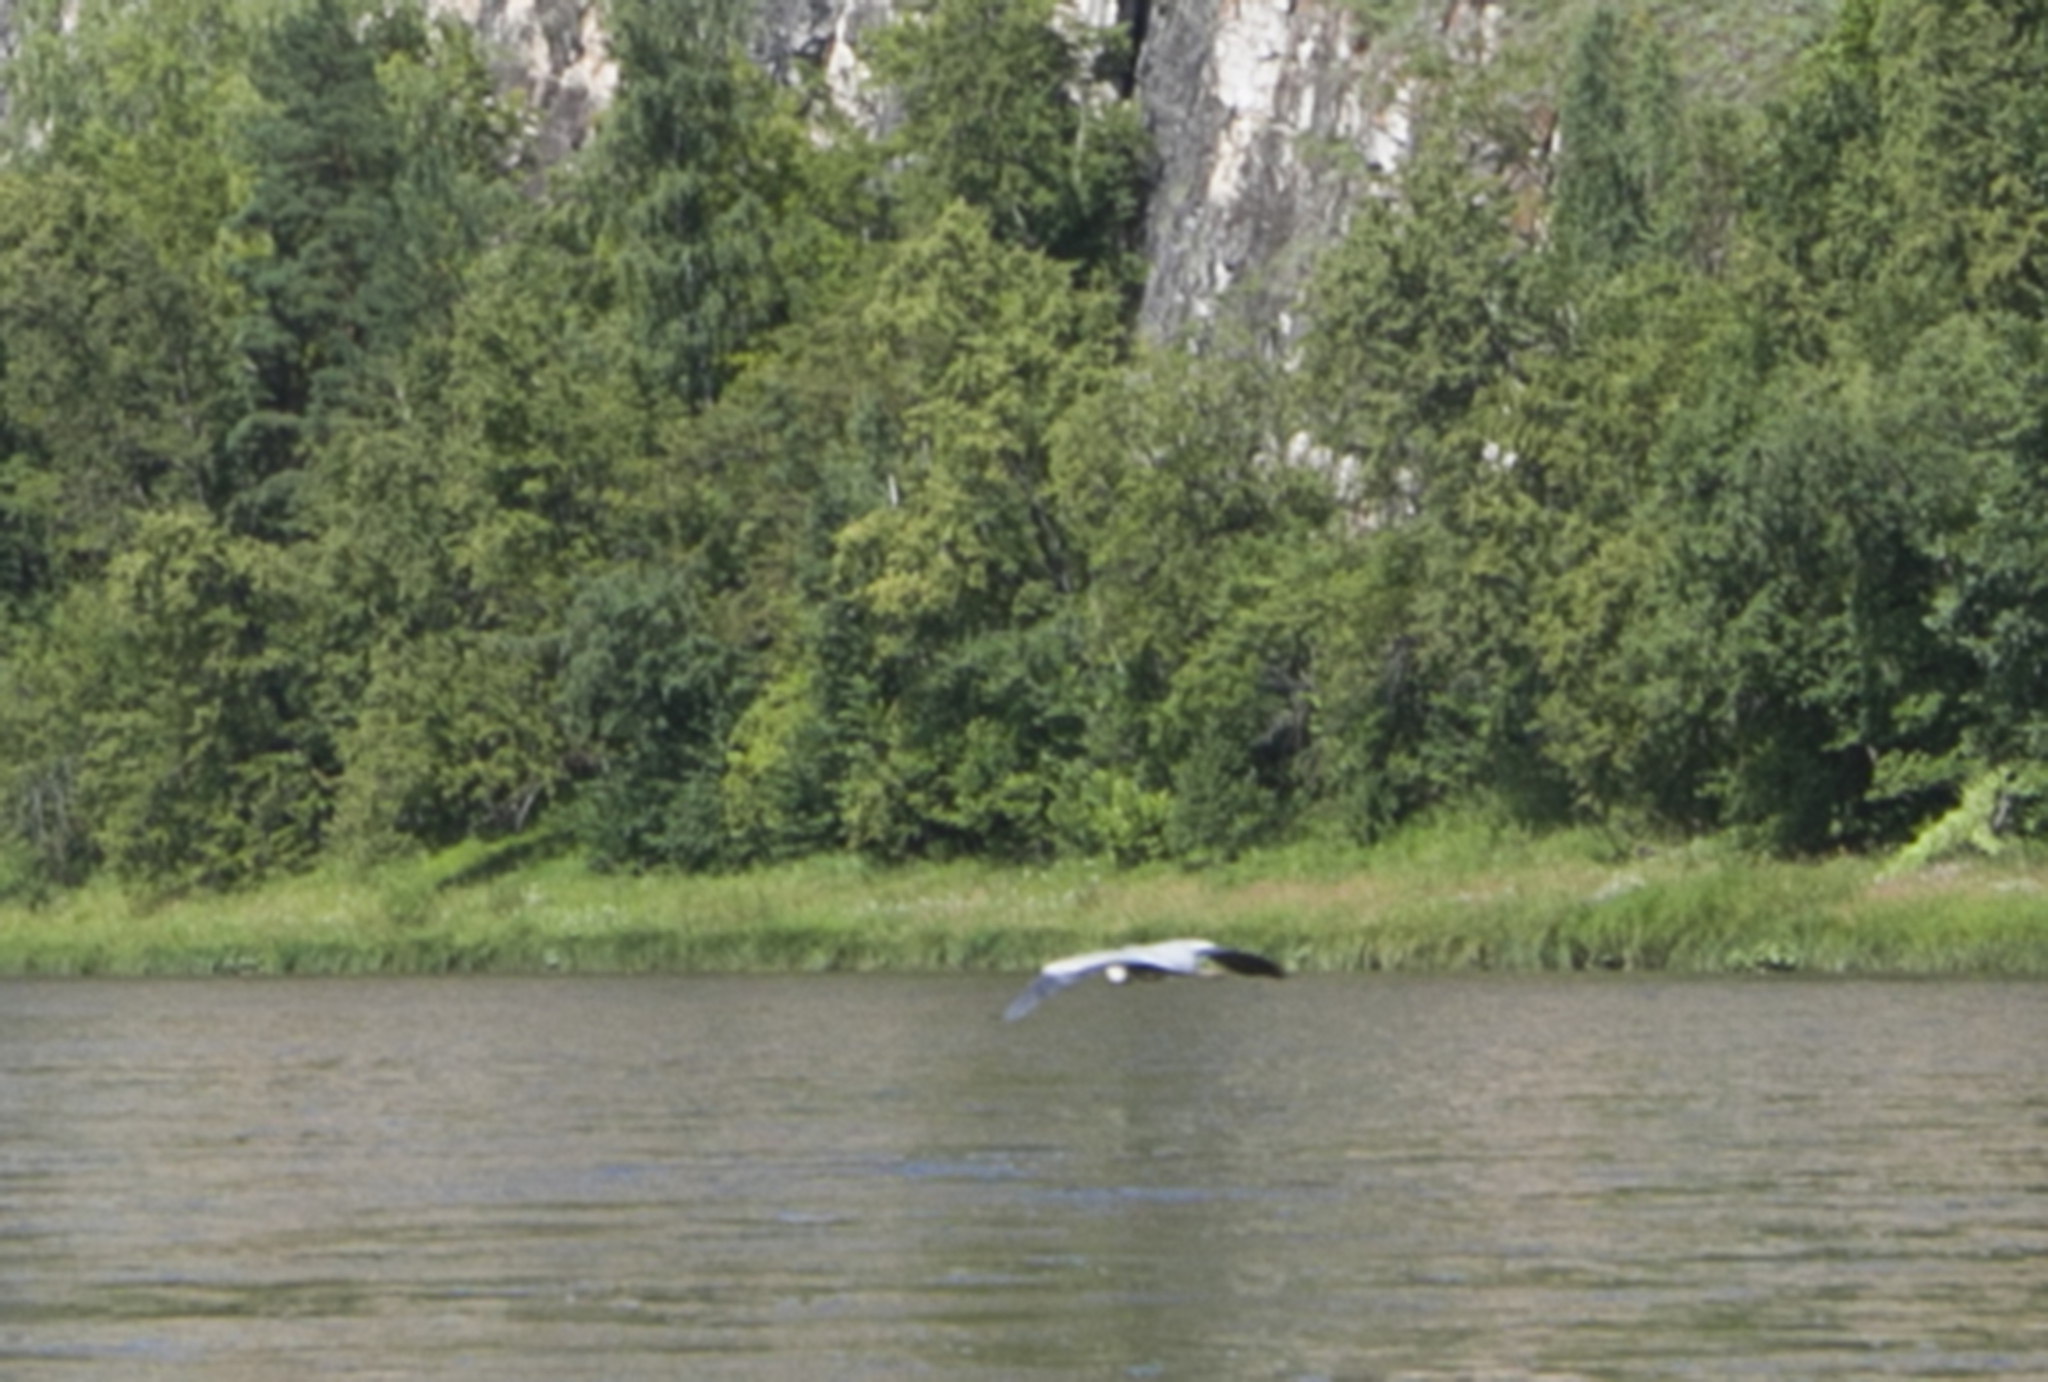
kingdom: Animalia
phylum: Chordata
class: Aves
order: Pelecaniformes
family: Ardeidae
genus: Ardea
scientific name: Ardea cinerea
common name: Grey heron
